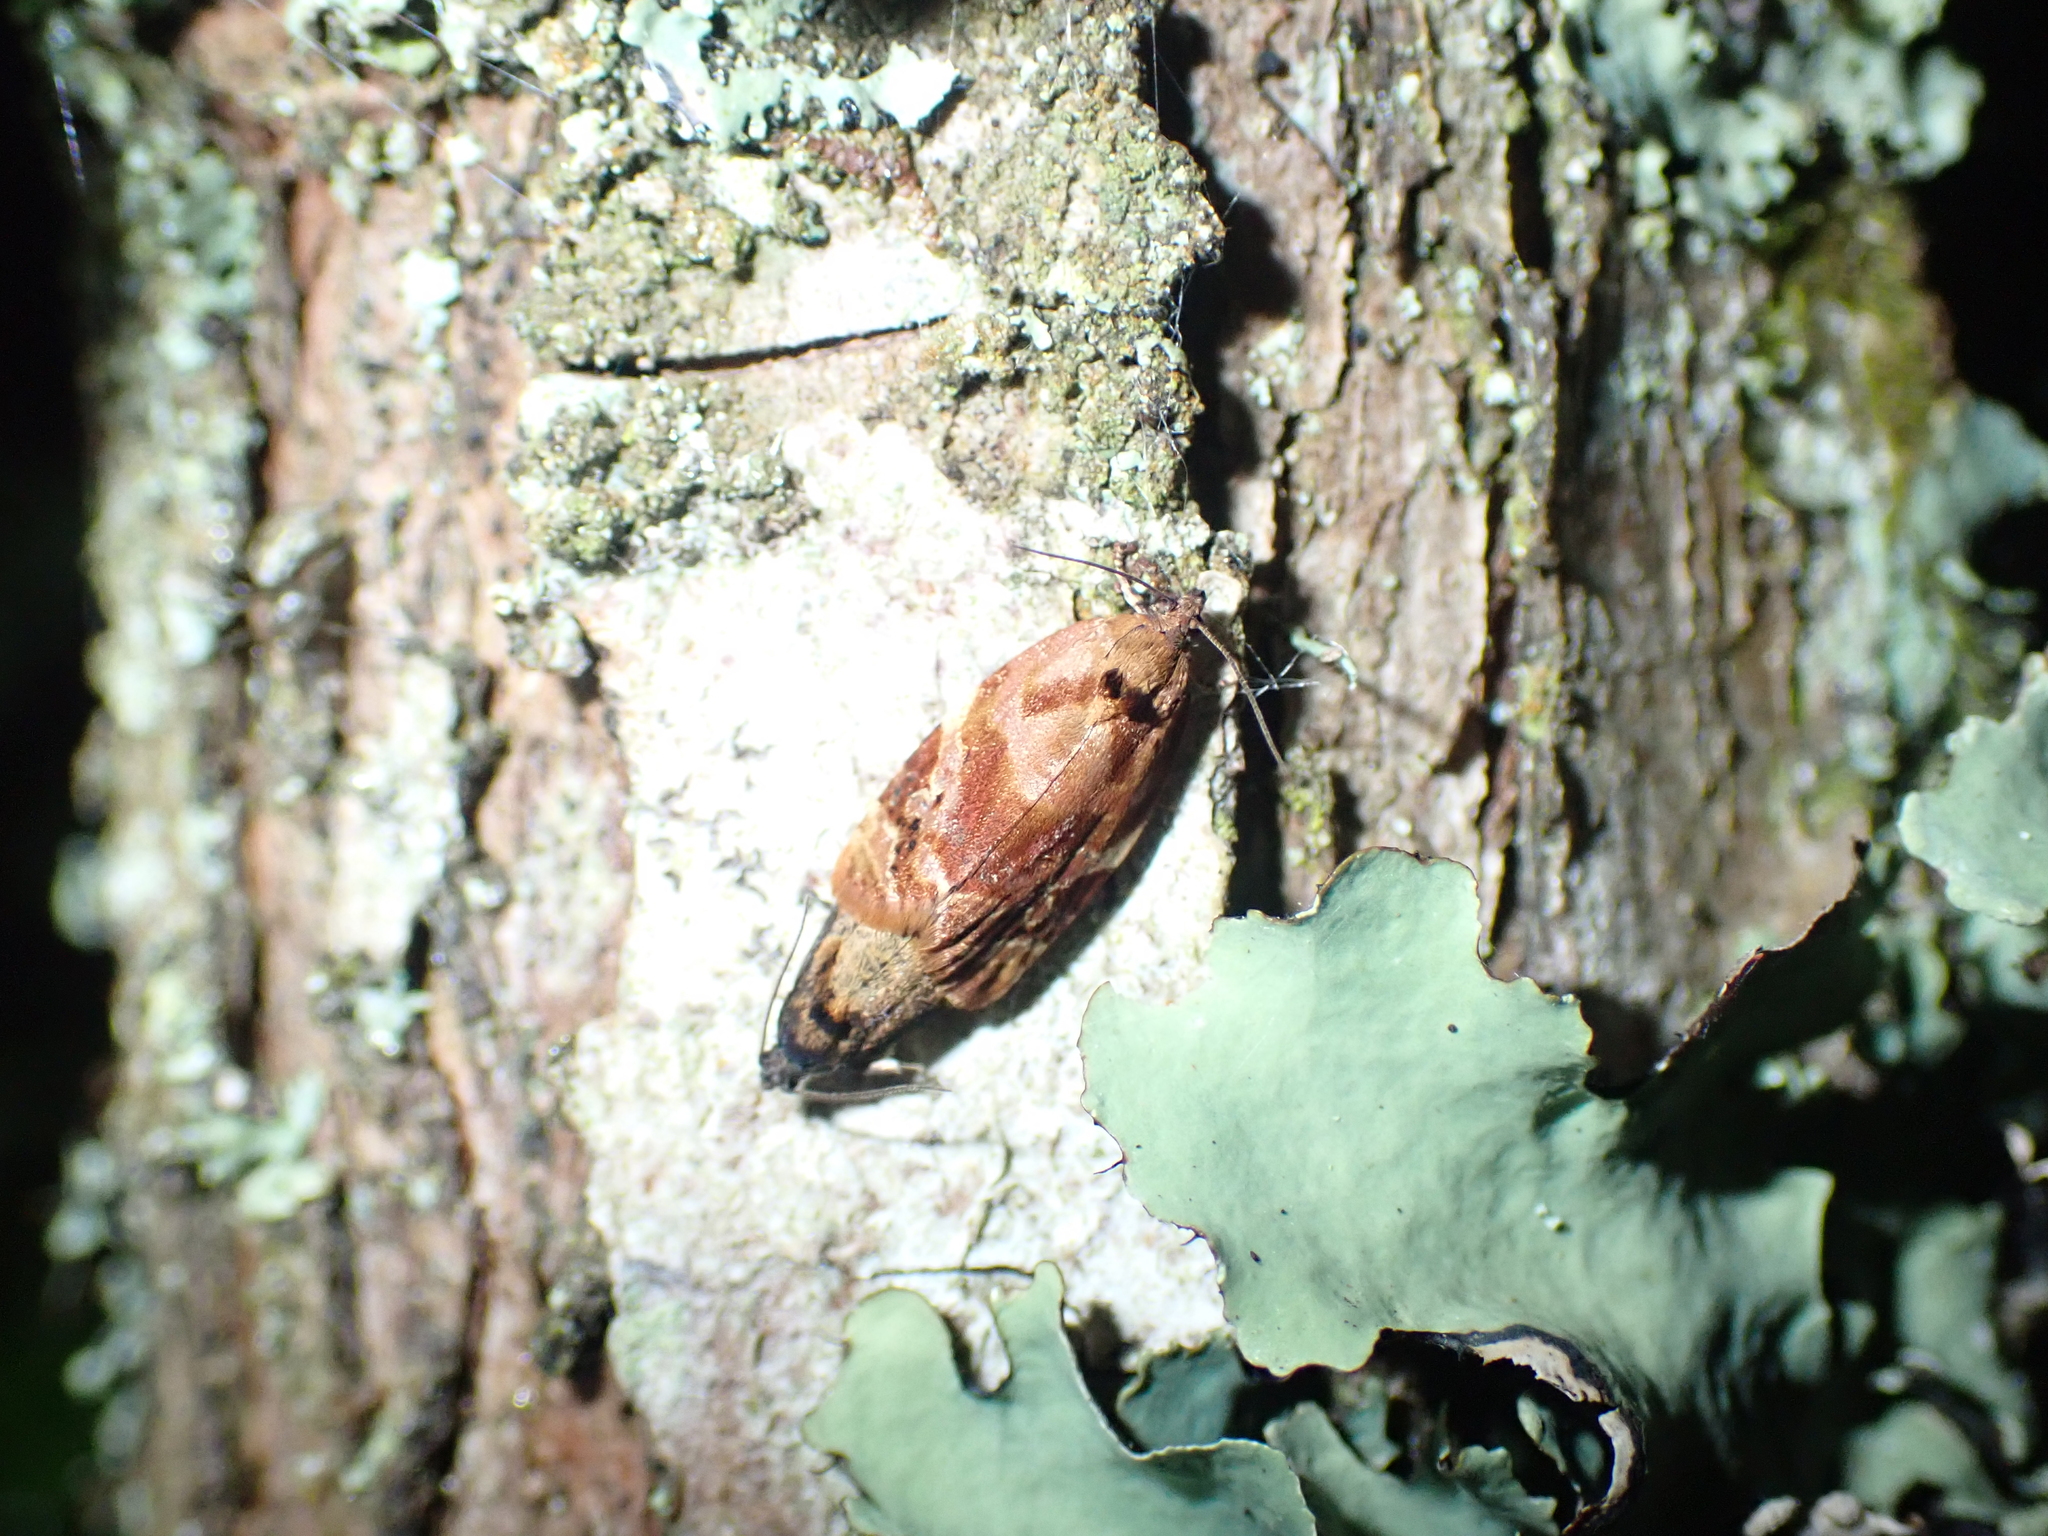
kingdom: Animalia
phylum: Arthropoda
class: Insecta
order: Lepidoptera
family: Tortricidae
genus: Ditula
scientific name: Ditula angustiorana
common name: Red-barred tortrix
